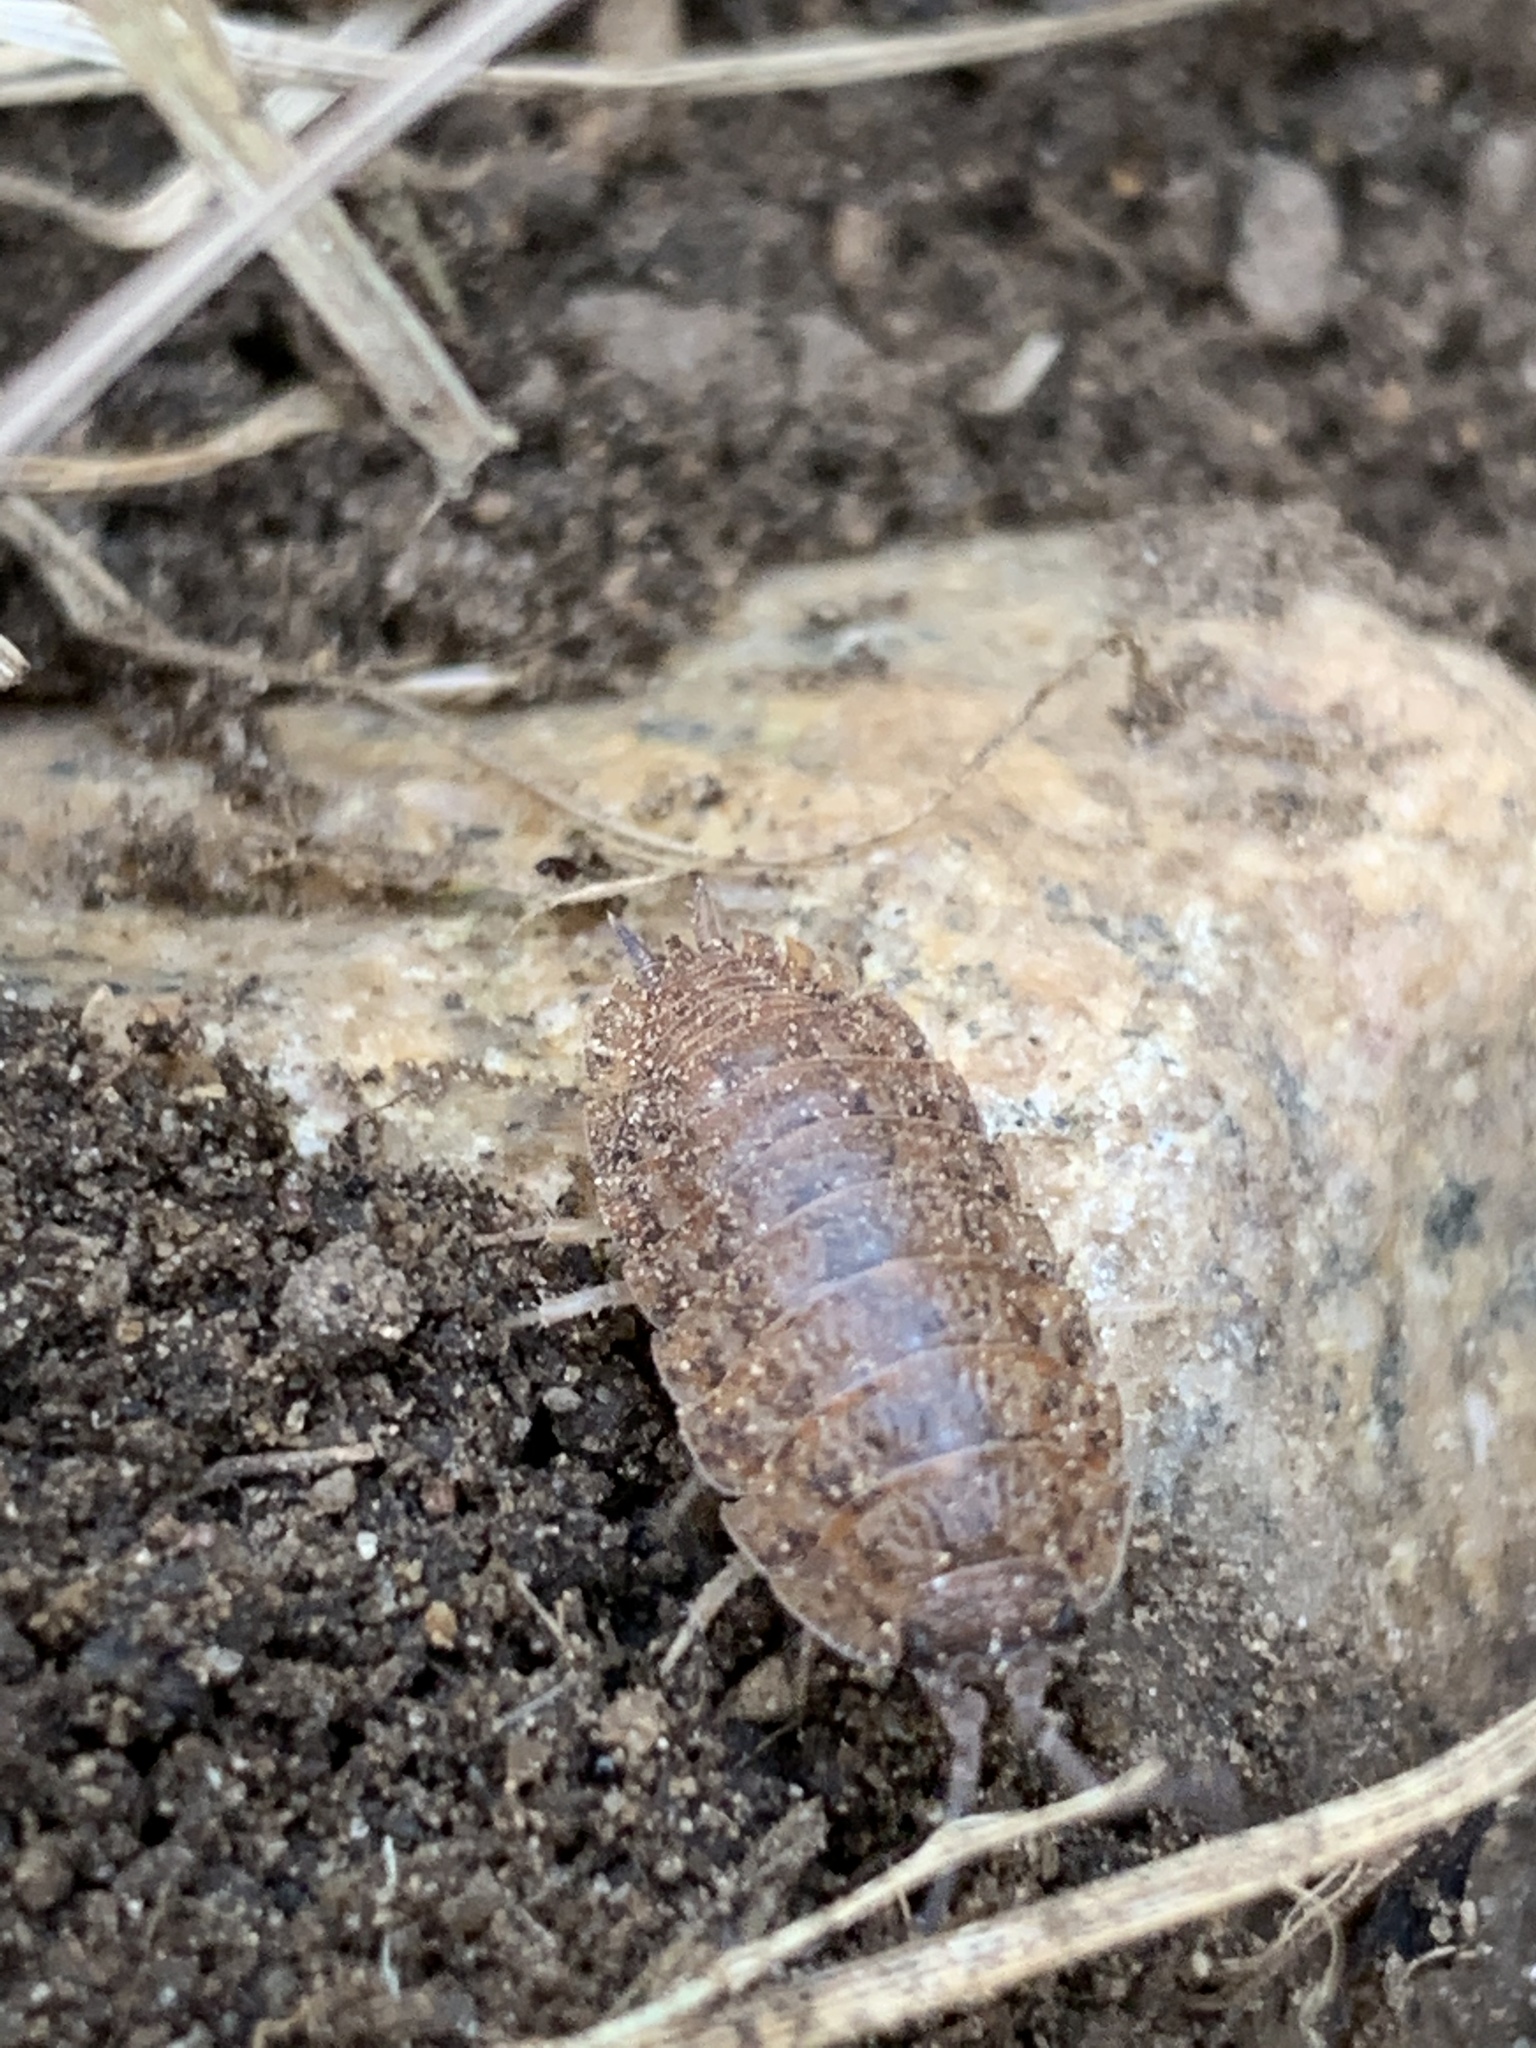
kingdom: Animalia
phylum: Arthropoda
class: Malacostraca
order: Isopoda
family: Trachelipodidae
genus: Trachelipus
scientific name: Trachelipus rathkii
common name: Isopod
